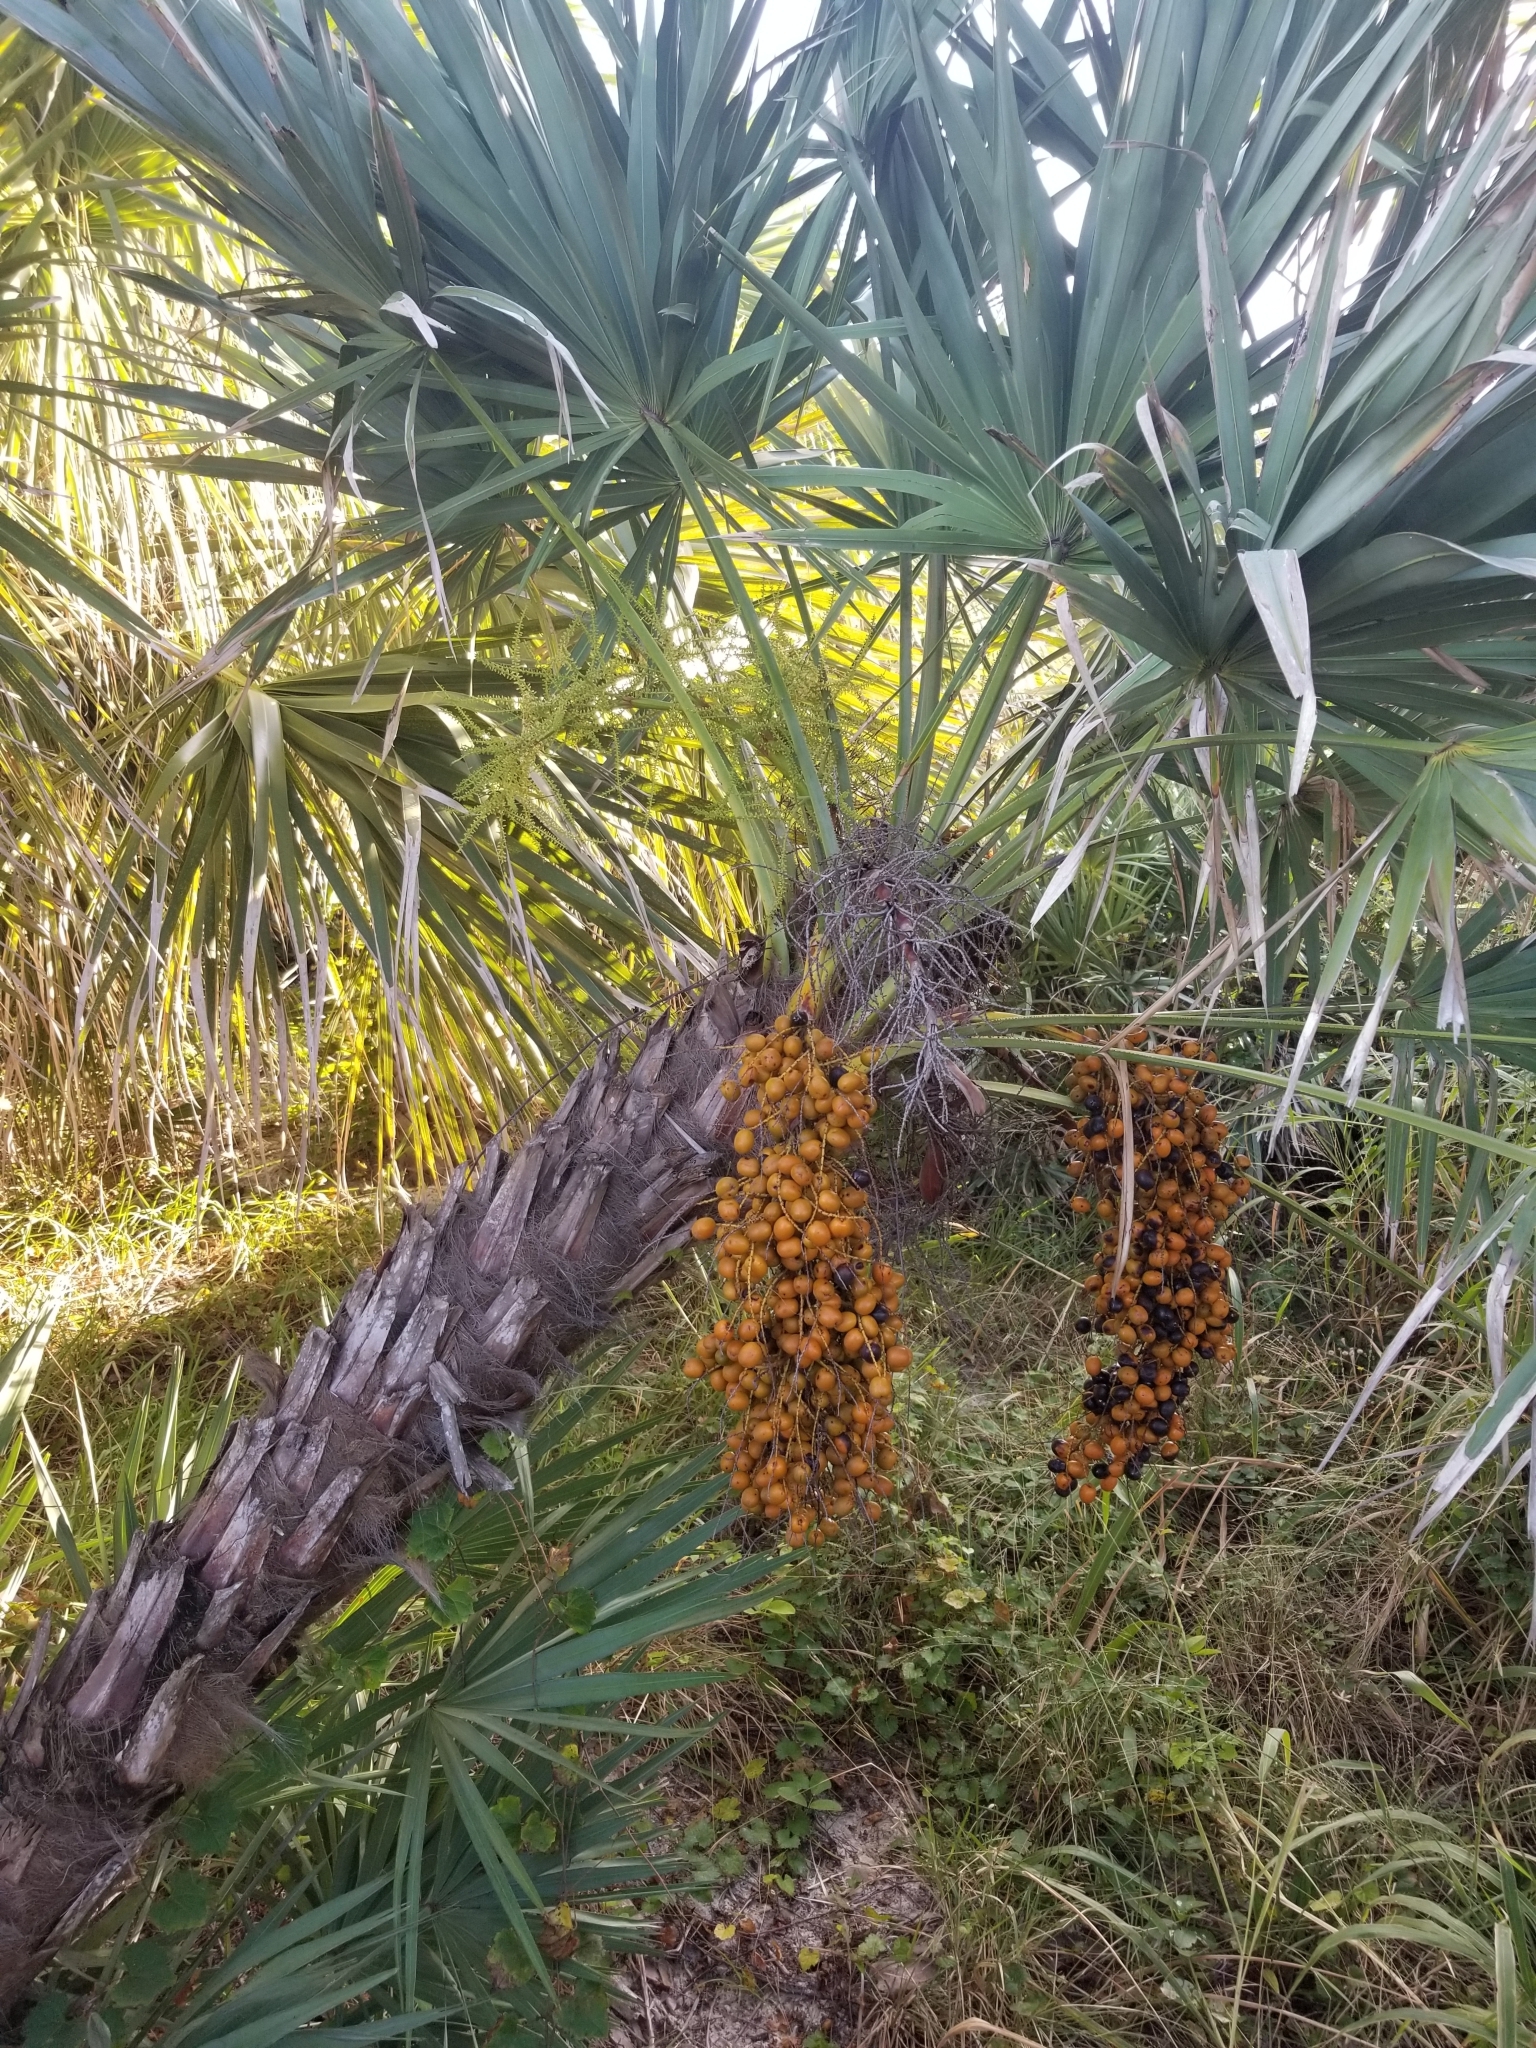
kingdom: Plantae
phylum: Tracheophyta
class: Liliopsida
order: Arecales
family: Arecaceae
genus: Serenoa
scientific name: Serenoa repens
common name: Saw-palmetto
